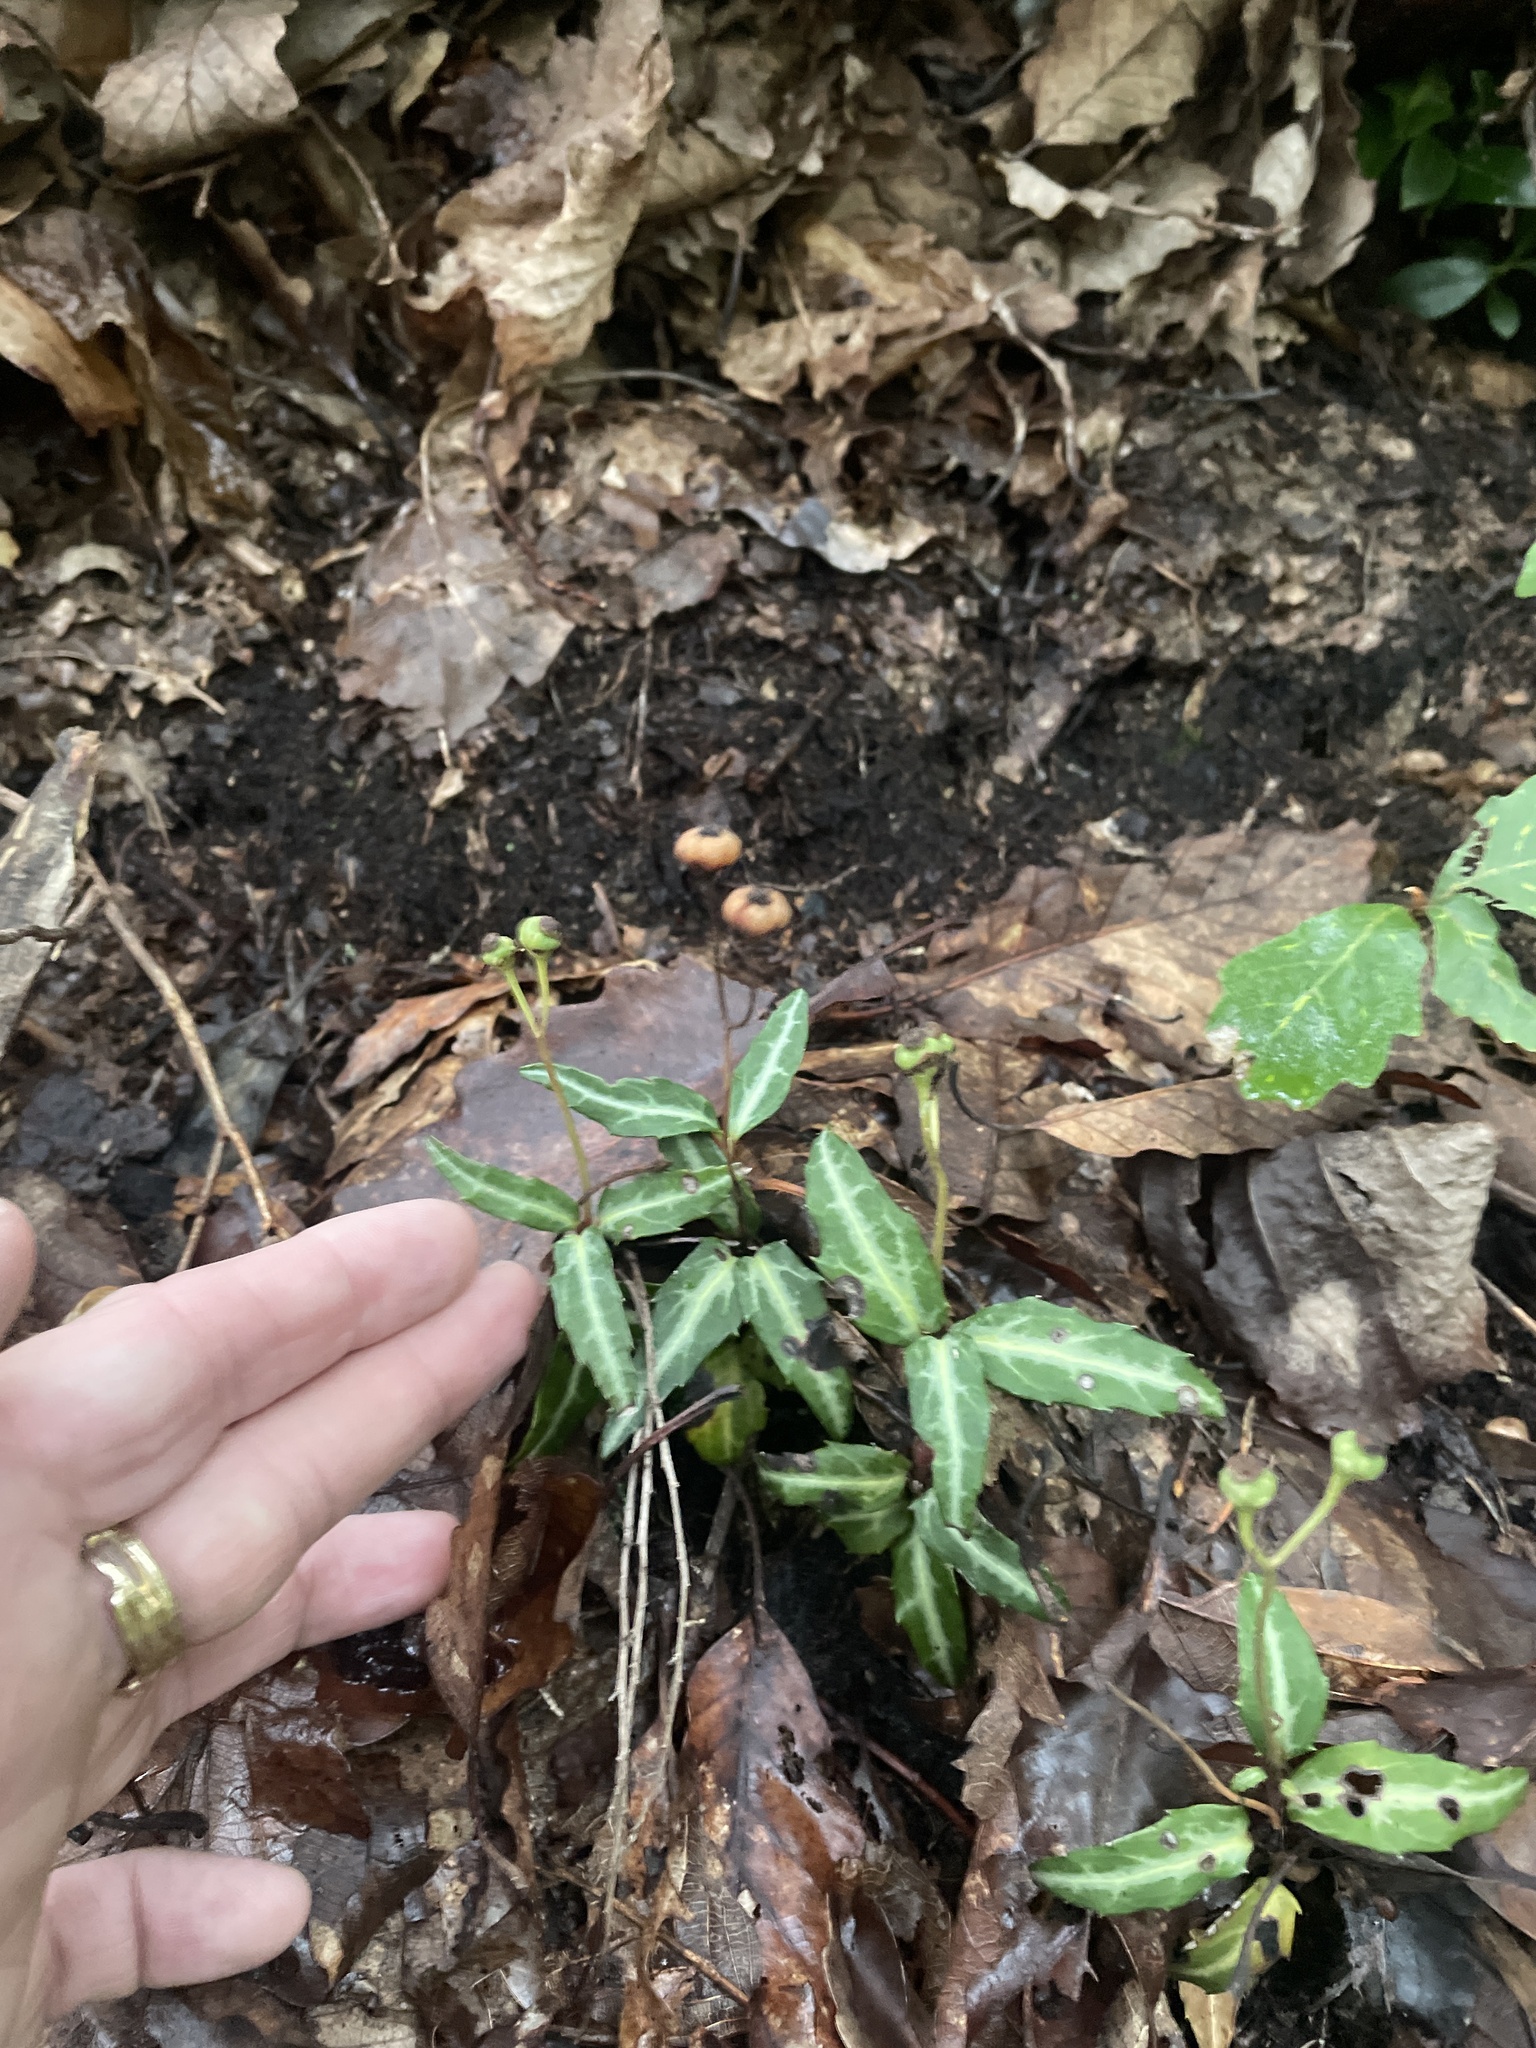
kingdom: Plantae
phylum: Tracheophyta
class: Magnoliopsida
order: Ericales
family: Ericaceae
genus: Chimaphila
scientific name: Chimaphila maculata
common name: Spotted pipsissewa
